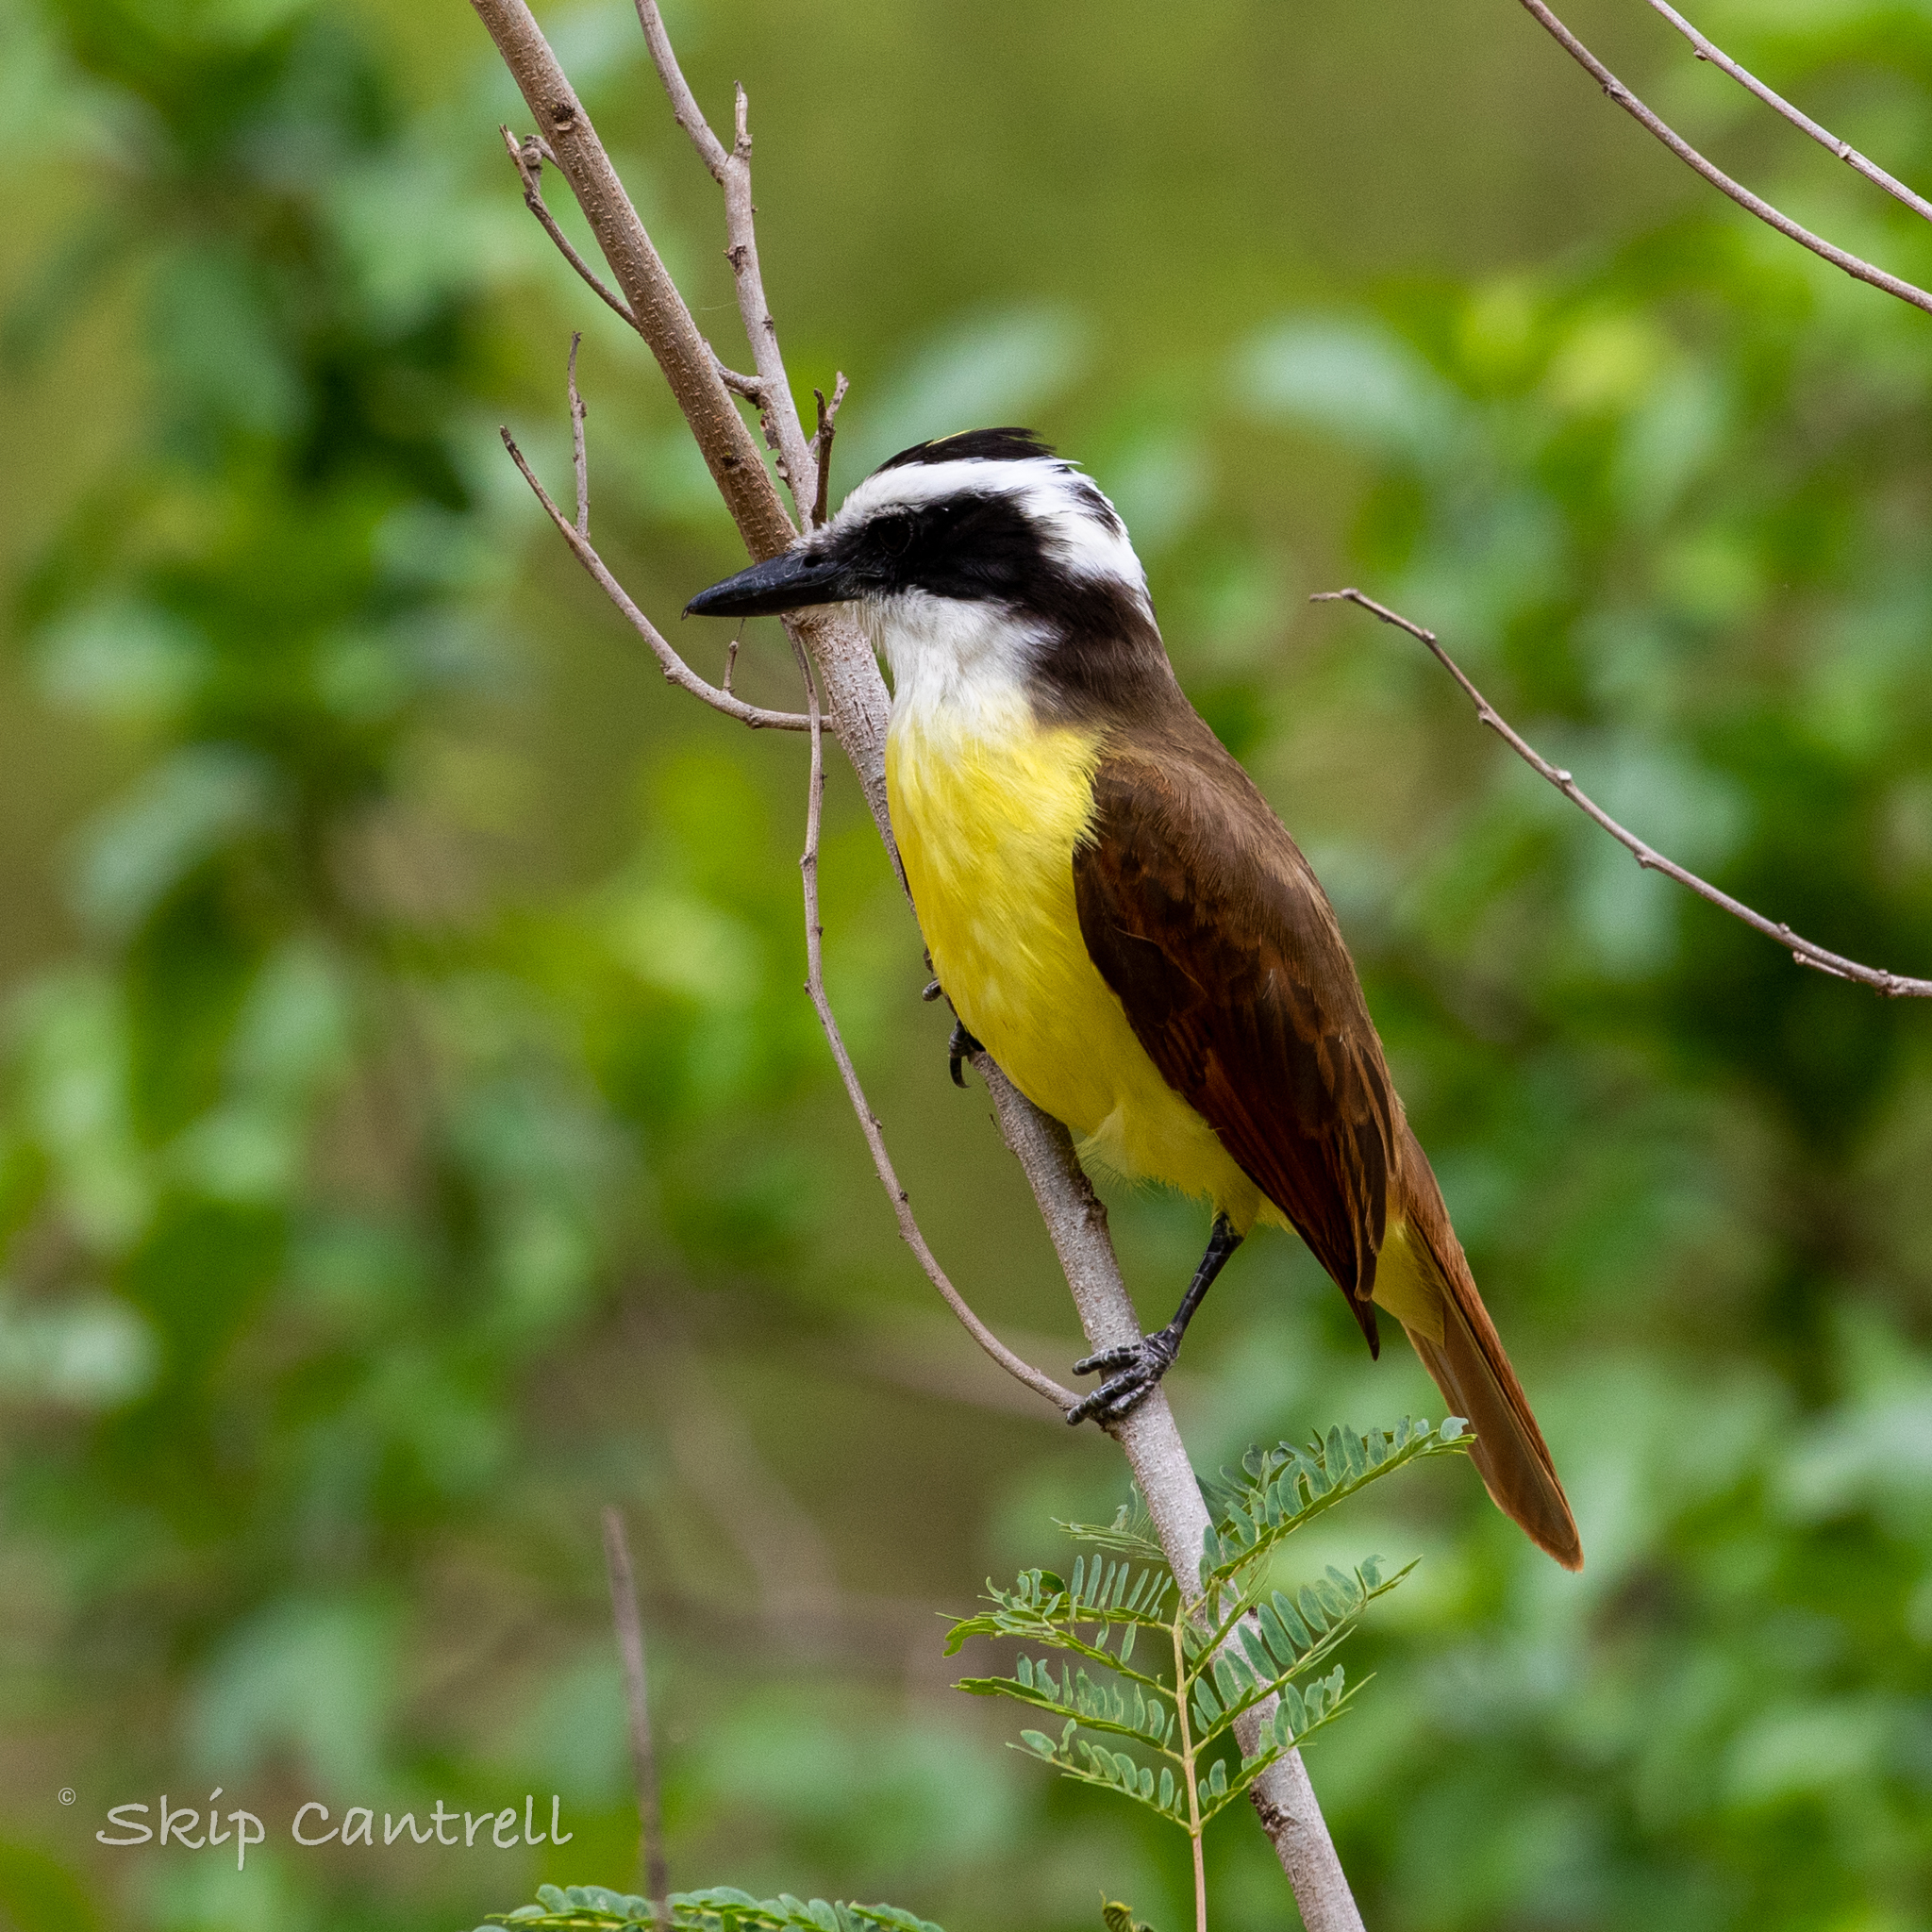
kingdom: Animalia
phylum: Chordata
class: Aves
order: Passeriformes
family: Tyrannidae
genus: Pitangus
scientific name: Pitangus sulphuratus
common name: Great kiskadee
